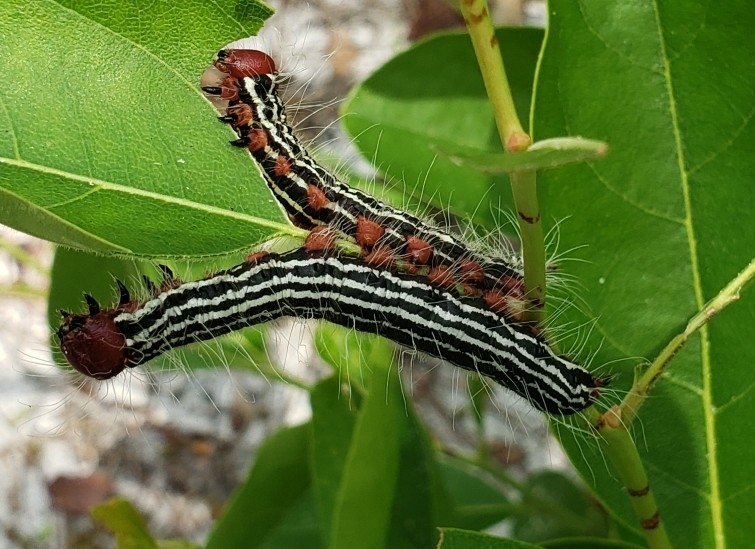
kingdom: Animalia
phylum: Arthropoda
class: Insecta
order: Lepidoptera
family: Notodontidae
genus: Datana
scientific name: Datana major
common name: Azalea caterpillar
